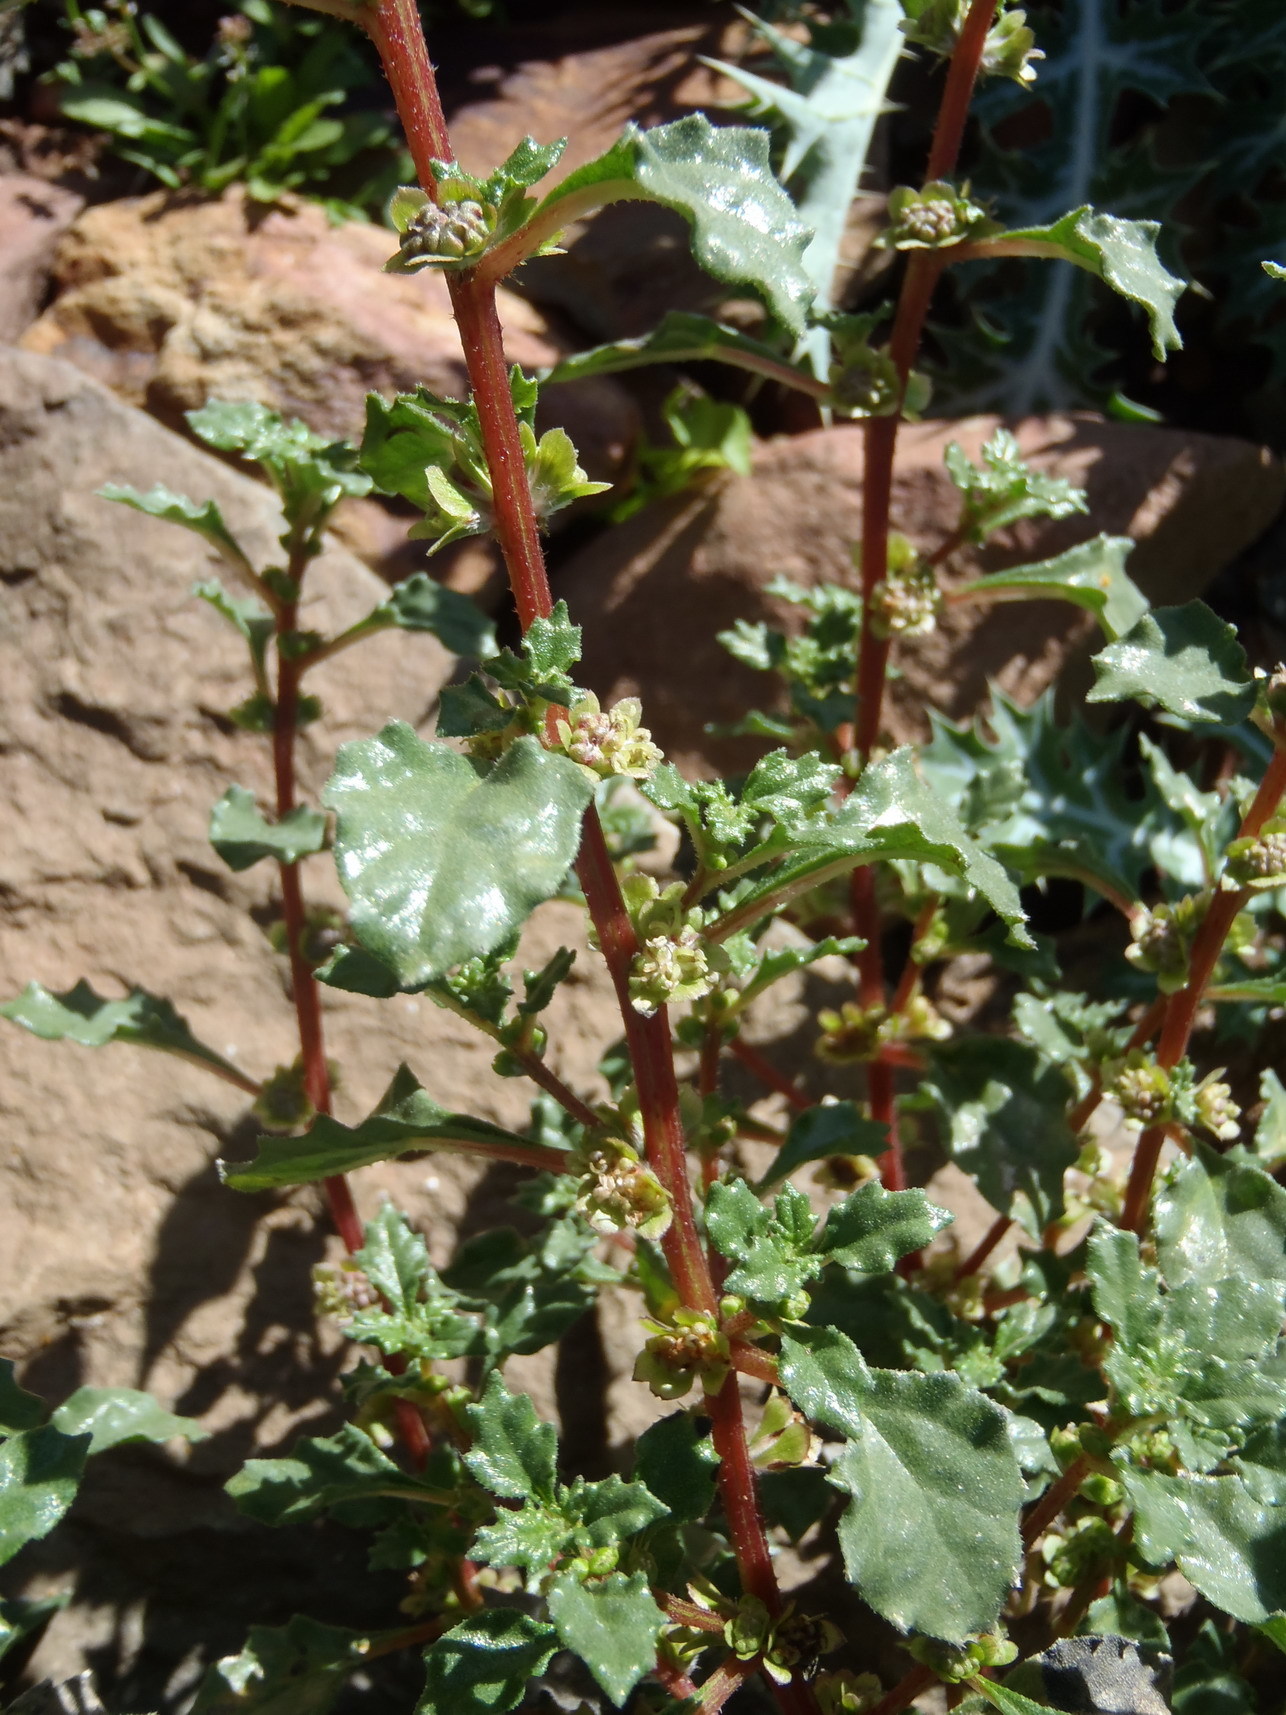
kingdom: Plantae
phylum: Tracheophyta
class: Magnoliopsida
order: Rosales
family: Urticaceae
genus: Forsskaolea
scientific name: Forsskaolea candida
